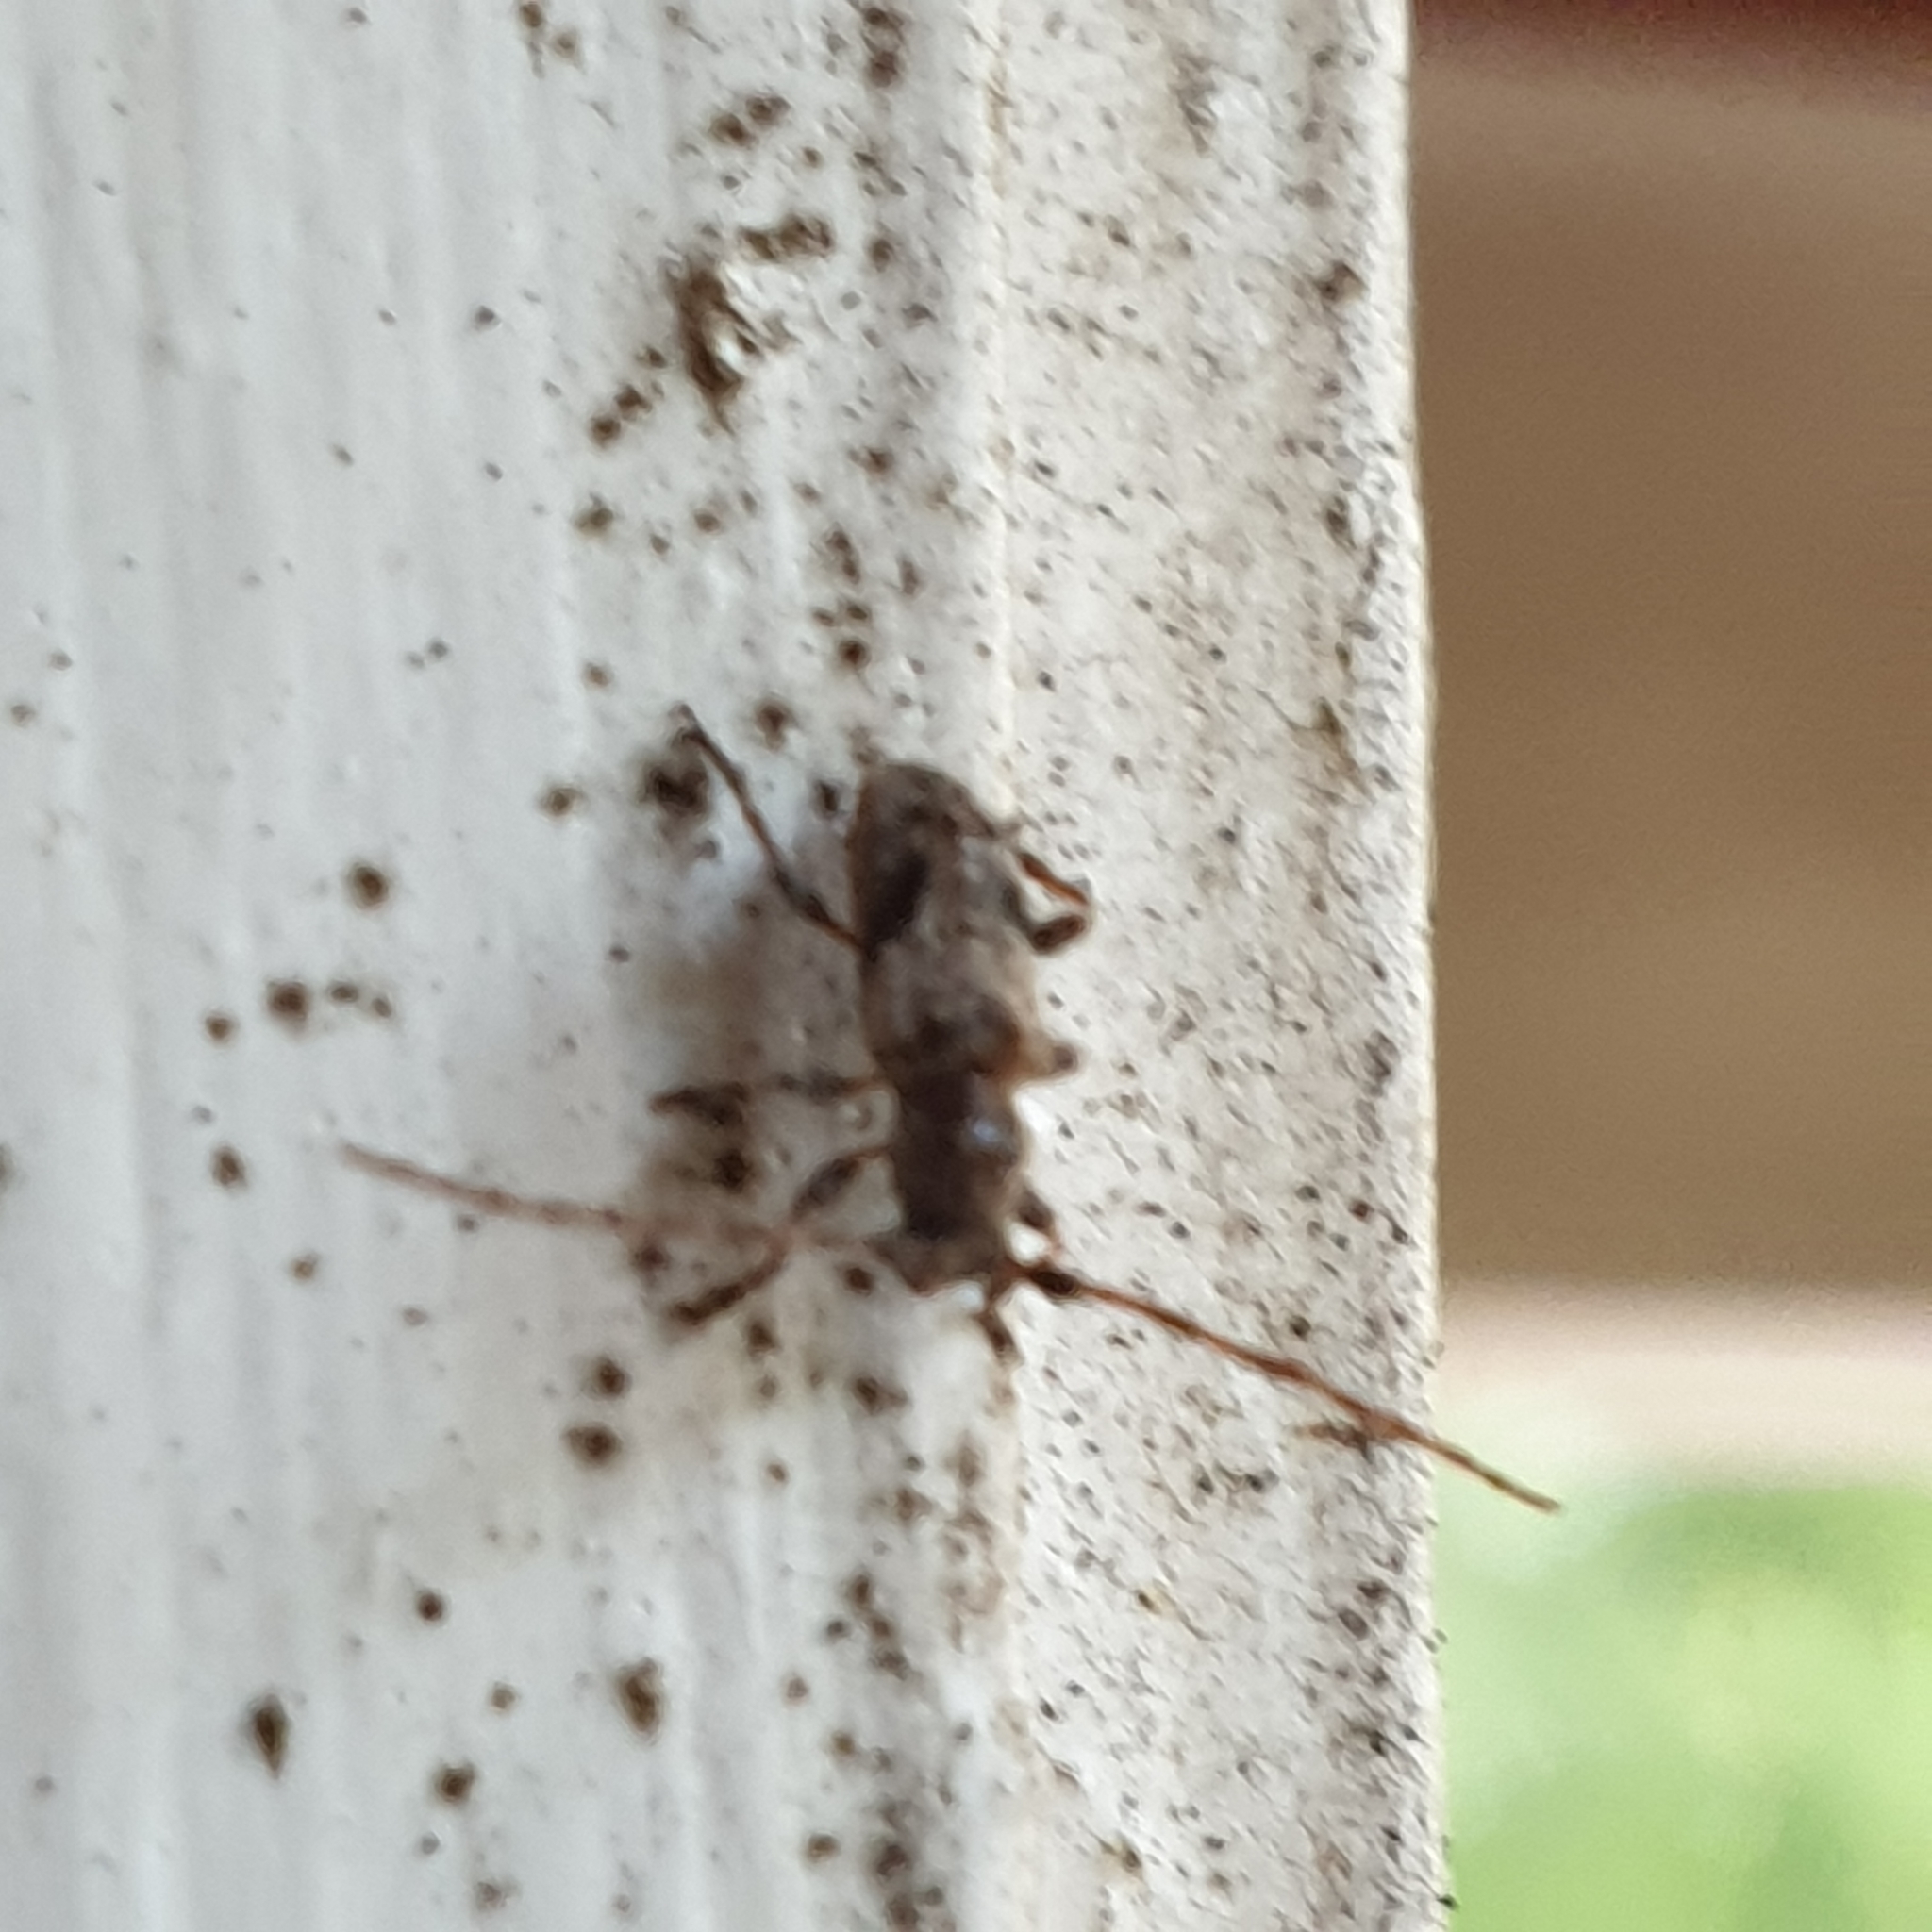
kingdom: Animalia
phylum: Arthropoda
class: Insecta
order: Coleoptera
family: Cerambycidae
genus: Pogonocherus
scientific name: Pogonocherus decoratus
